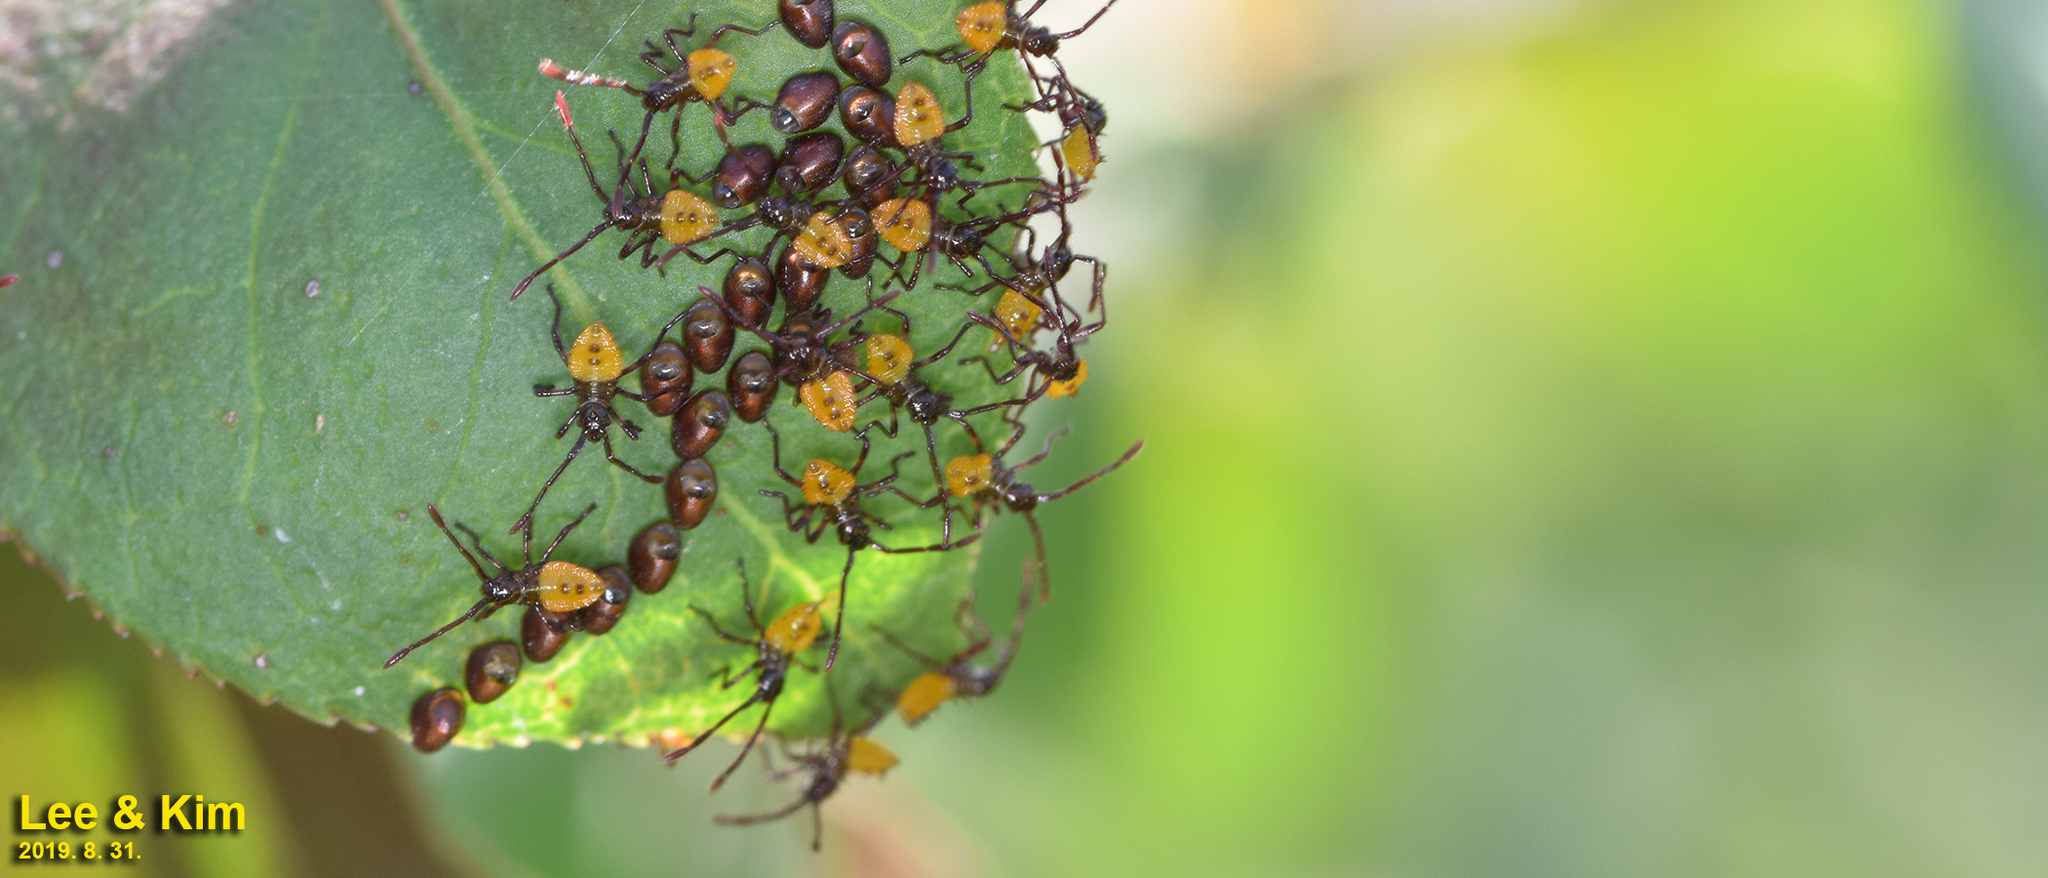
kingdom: Animalia
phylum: Arthropoda
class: Insecta
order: Hemiptera
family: Coreidae
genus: Plinachtus
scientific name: Plinachtus bicoloripes
